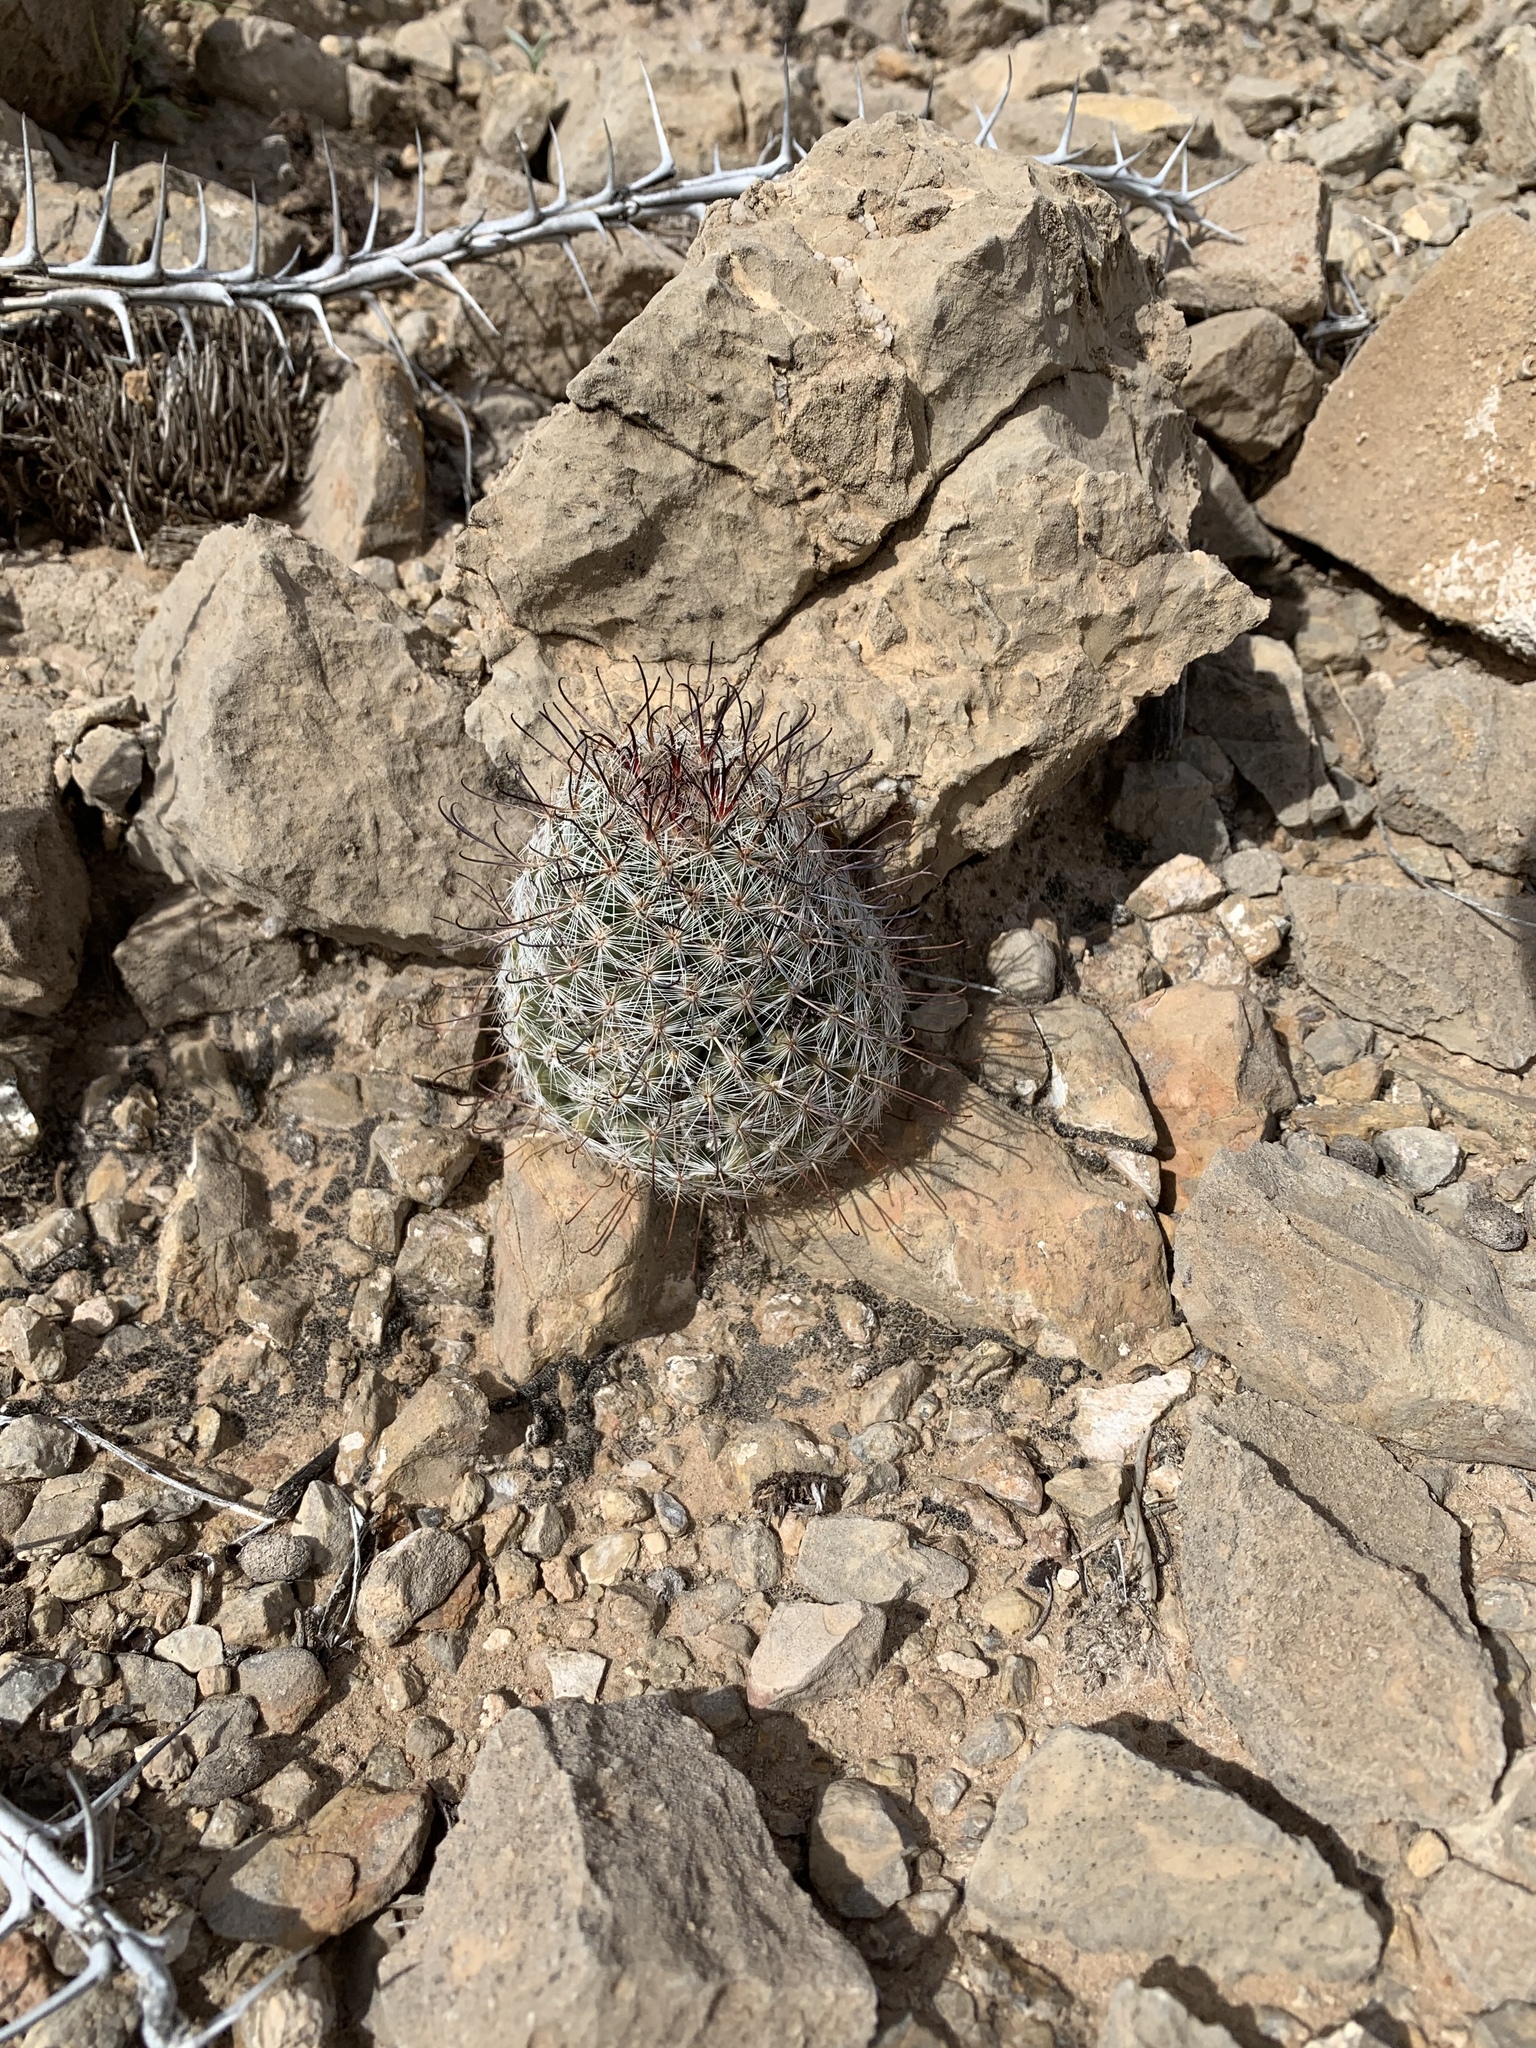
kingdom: Plantae
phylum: Tracheophyta
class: Magnoliopsida
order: Caryophyllales
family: Cactaceae
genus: Cochemiea
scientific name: Cochemiea grahamii
